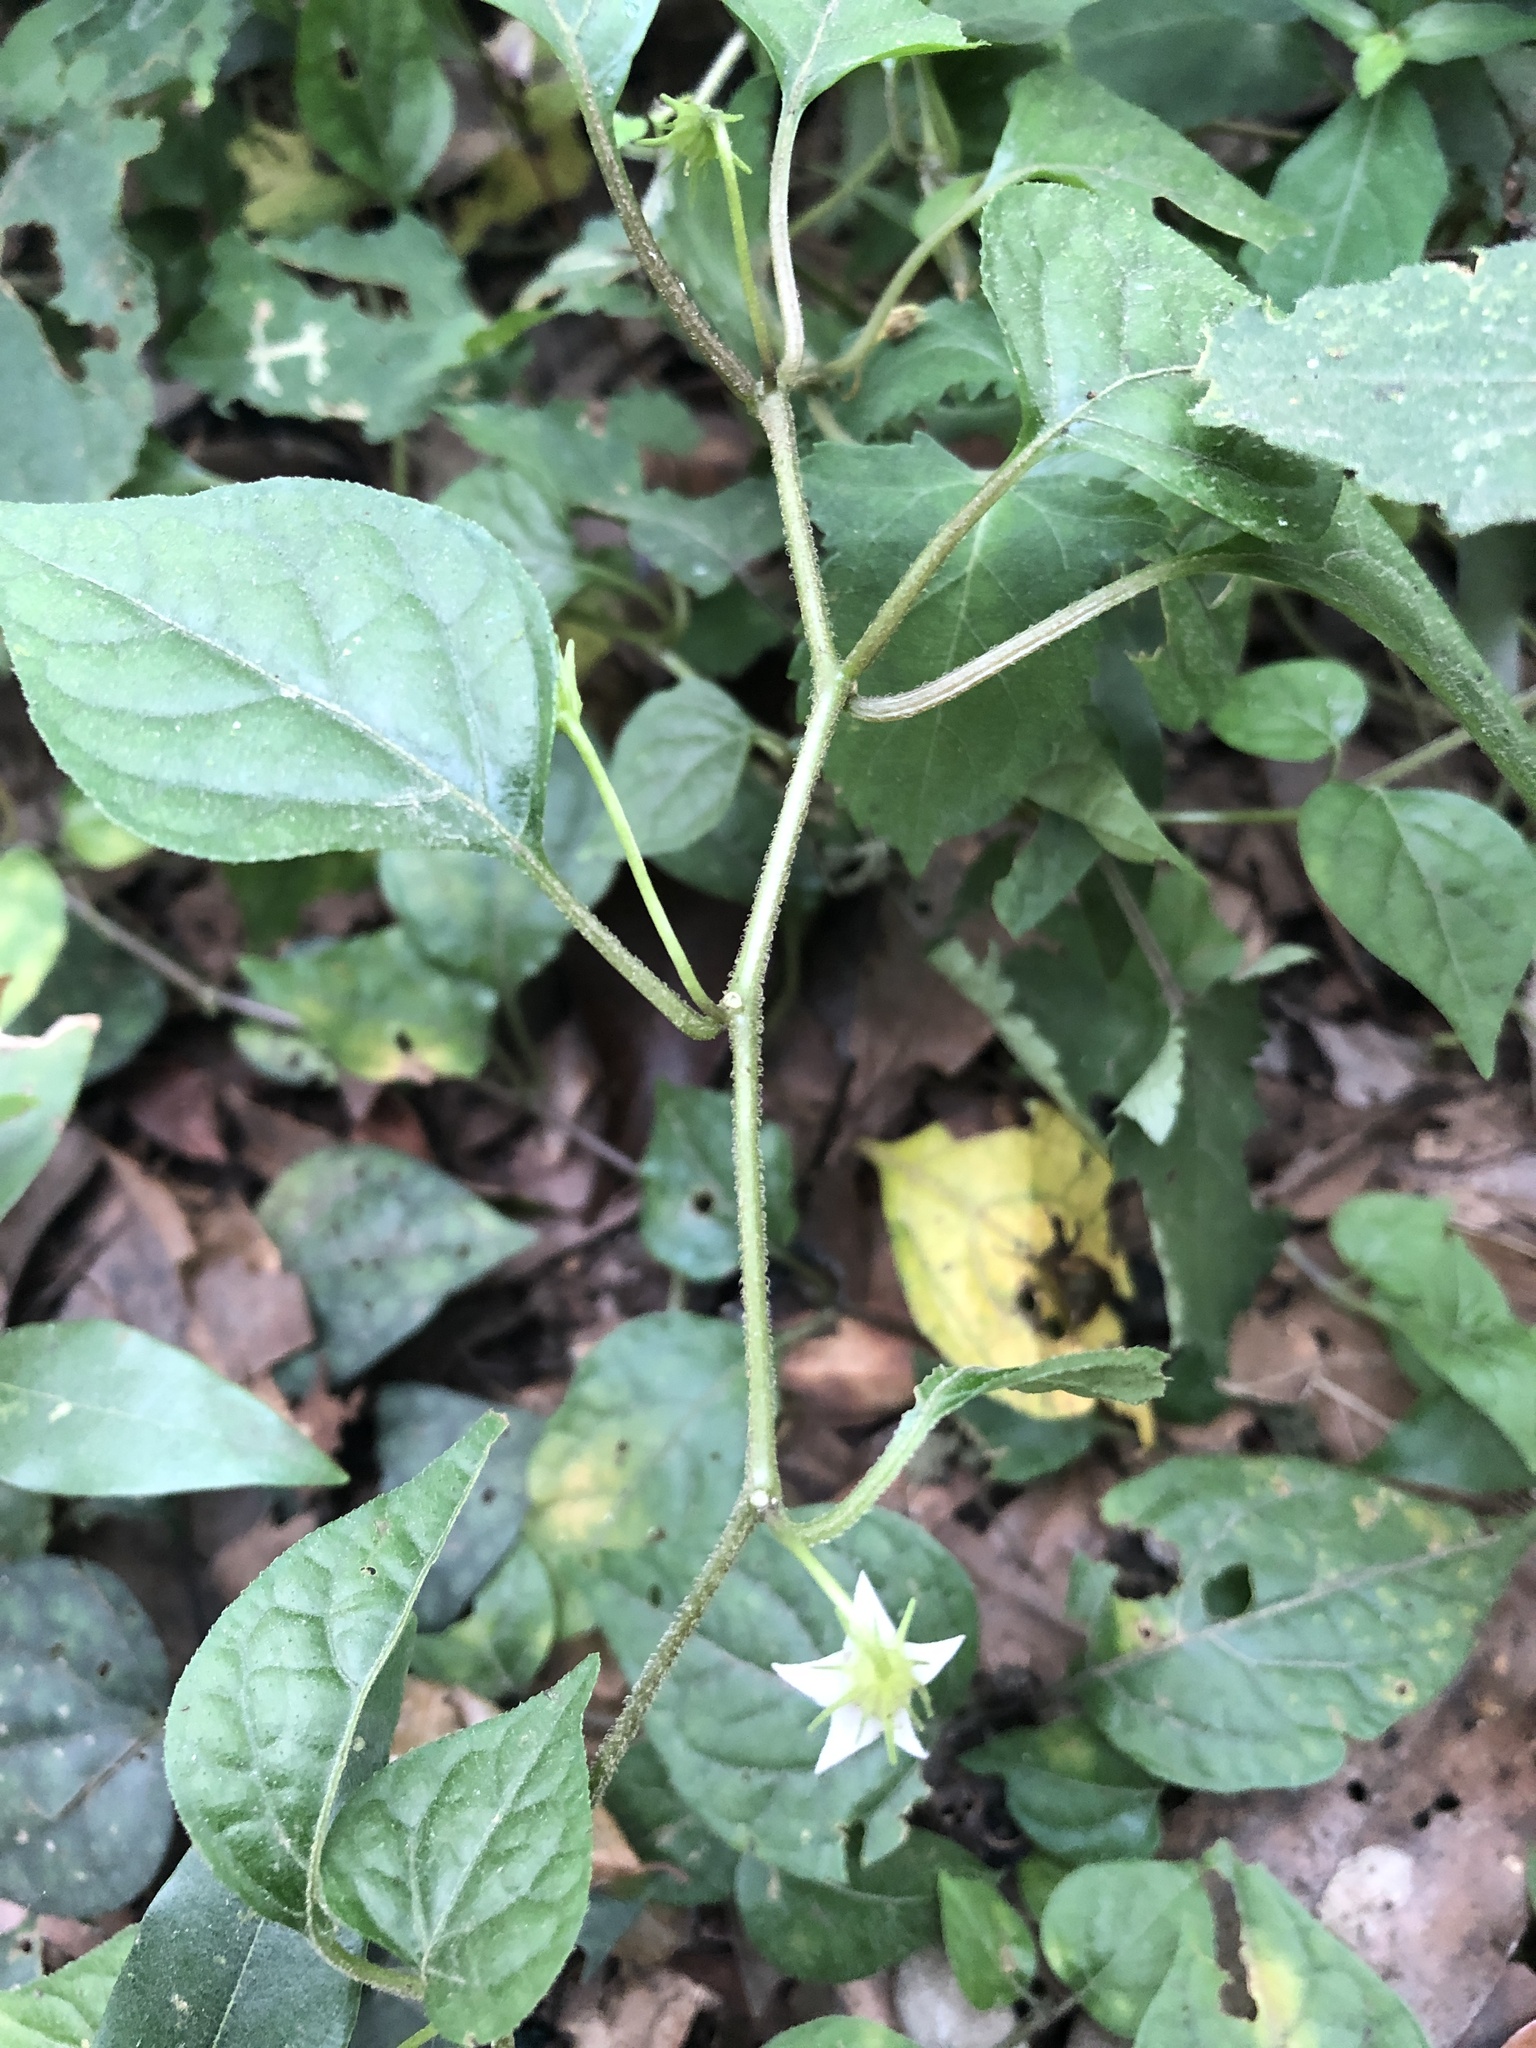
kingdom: Plantae
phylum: Tracheophyta
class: Magnoliopsida
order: Solanales
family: Solanaceae
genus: Lycianthes
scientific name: Lycianthes lysimachioides
